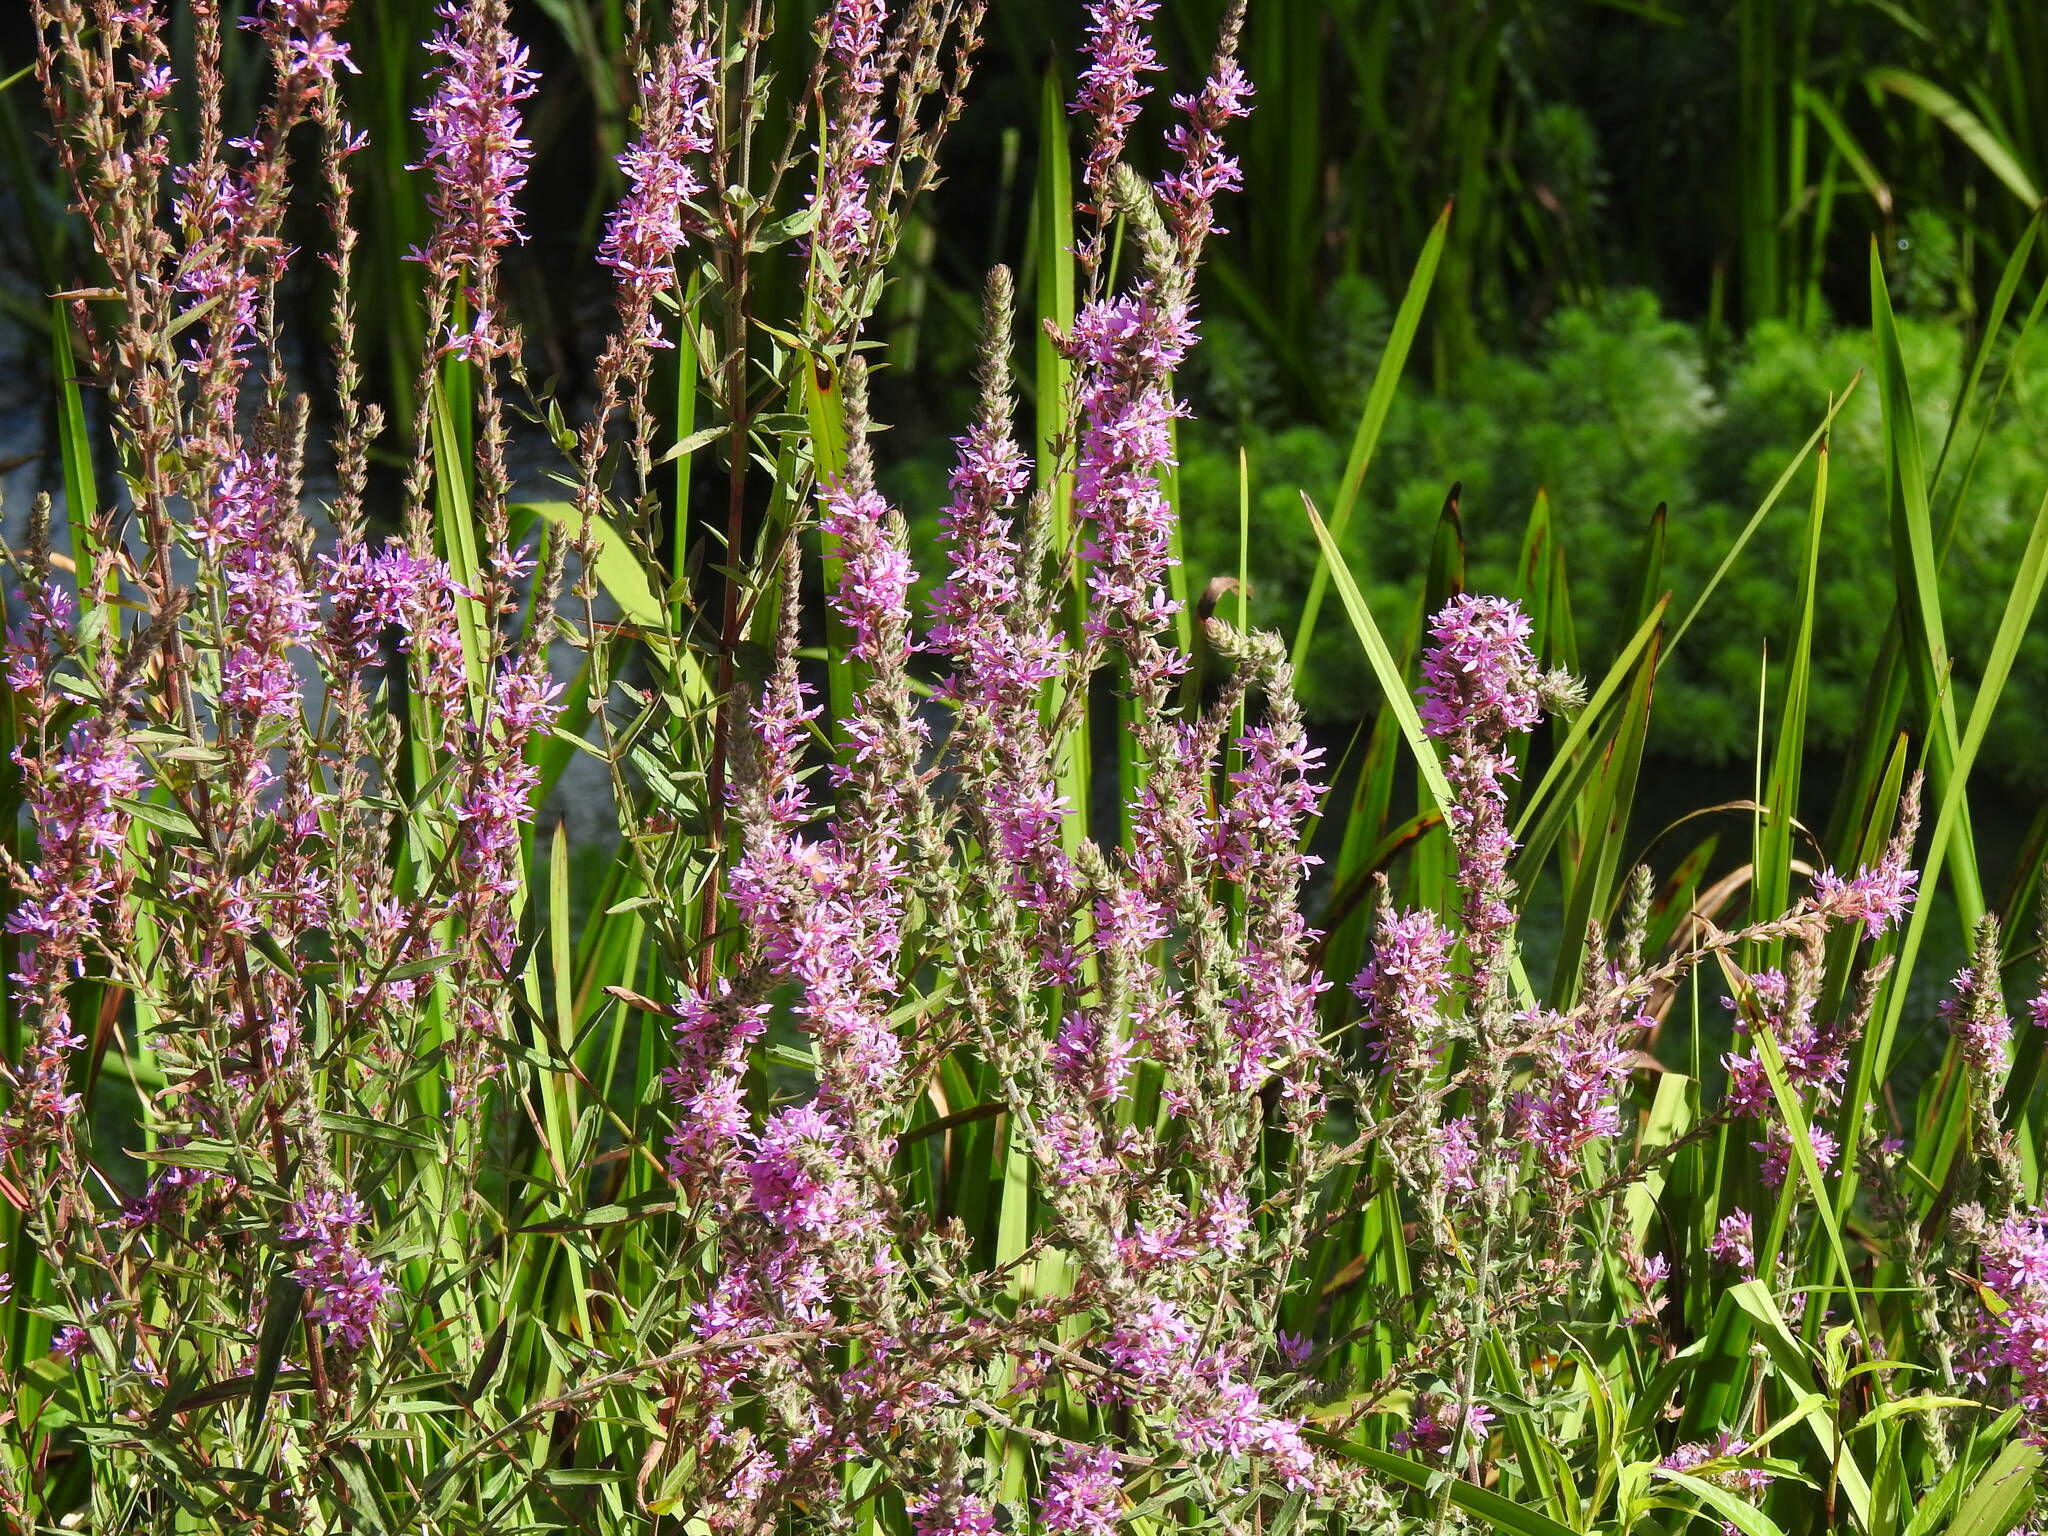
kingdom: Plantae
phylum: Tracheophyta
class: Magnoliopsida
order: Myrtales
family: Lythraceae
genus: Lythrum
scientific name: Lythrum salicaria
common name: Purple loosestrife
